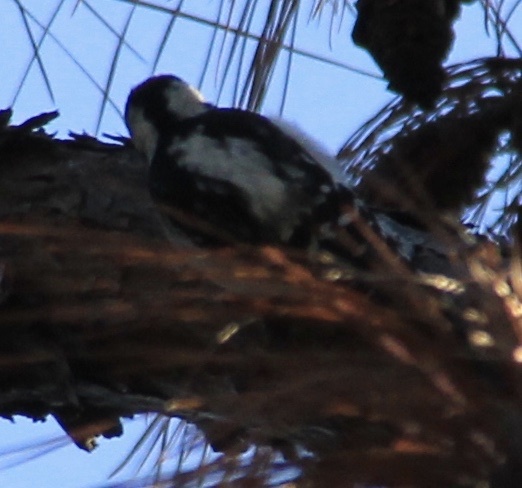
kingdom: Animalia
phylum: Chordata
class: Aves
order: Piciformes
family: Picidae
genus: Dryobates
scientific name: Dryobates pubescens
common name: Downy woodpecker
